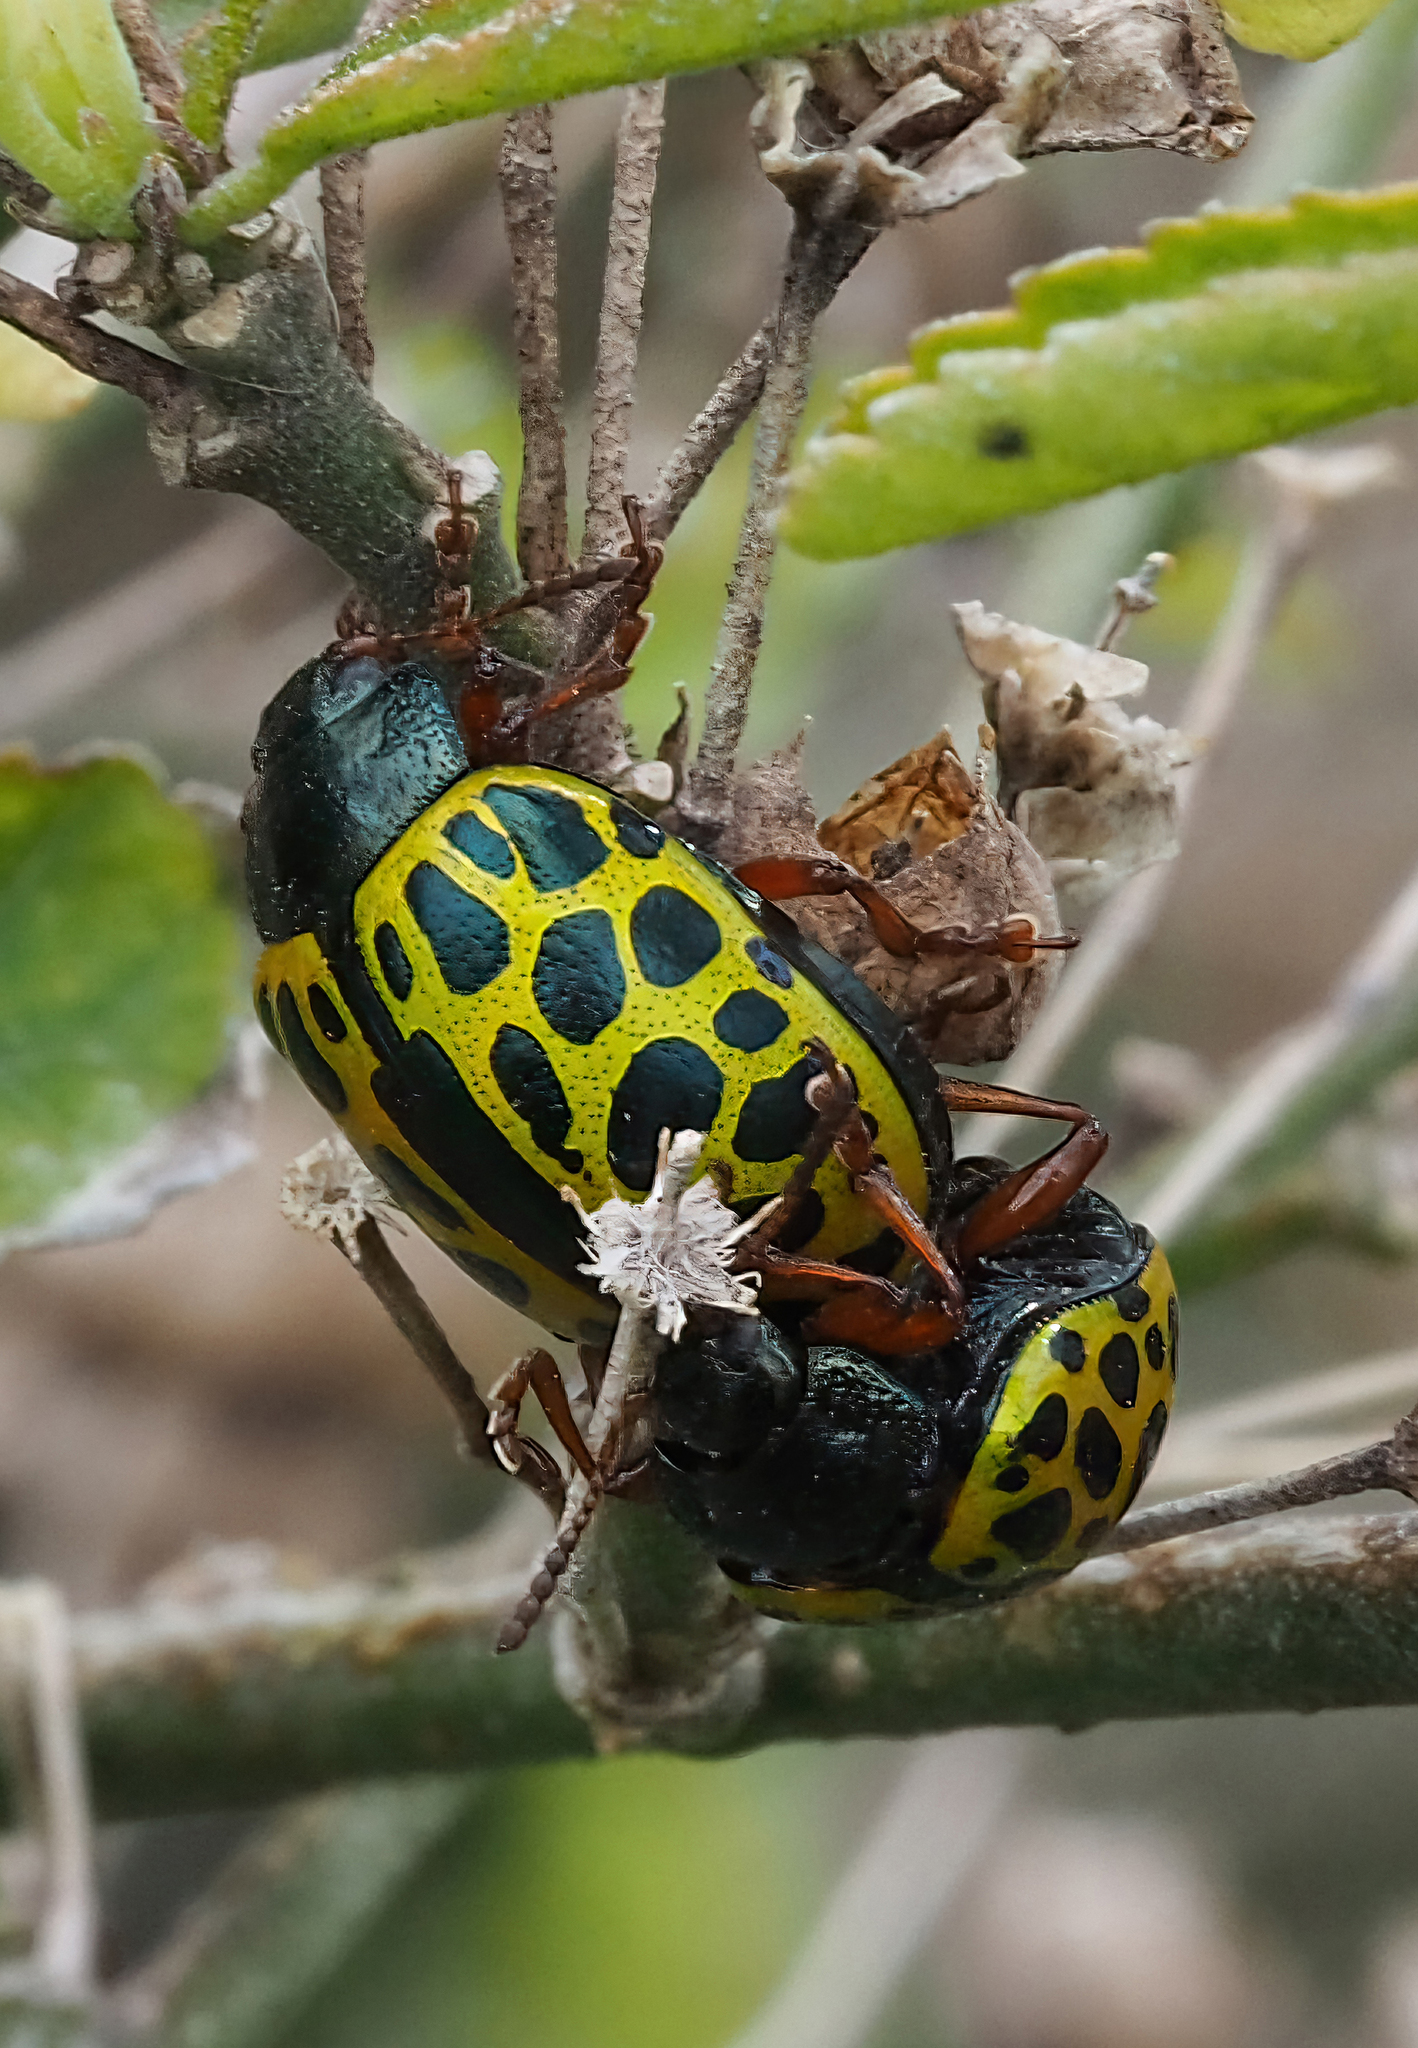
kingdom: Animalia
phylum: Arthropoda
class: Insecta
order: Coleoptera
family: Chrysomelidae
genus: Calligrapha
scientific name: Calligrapha polyspila
